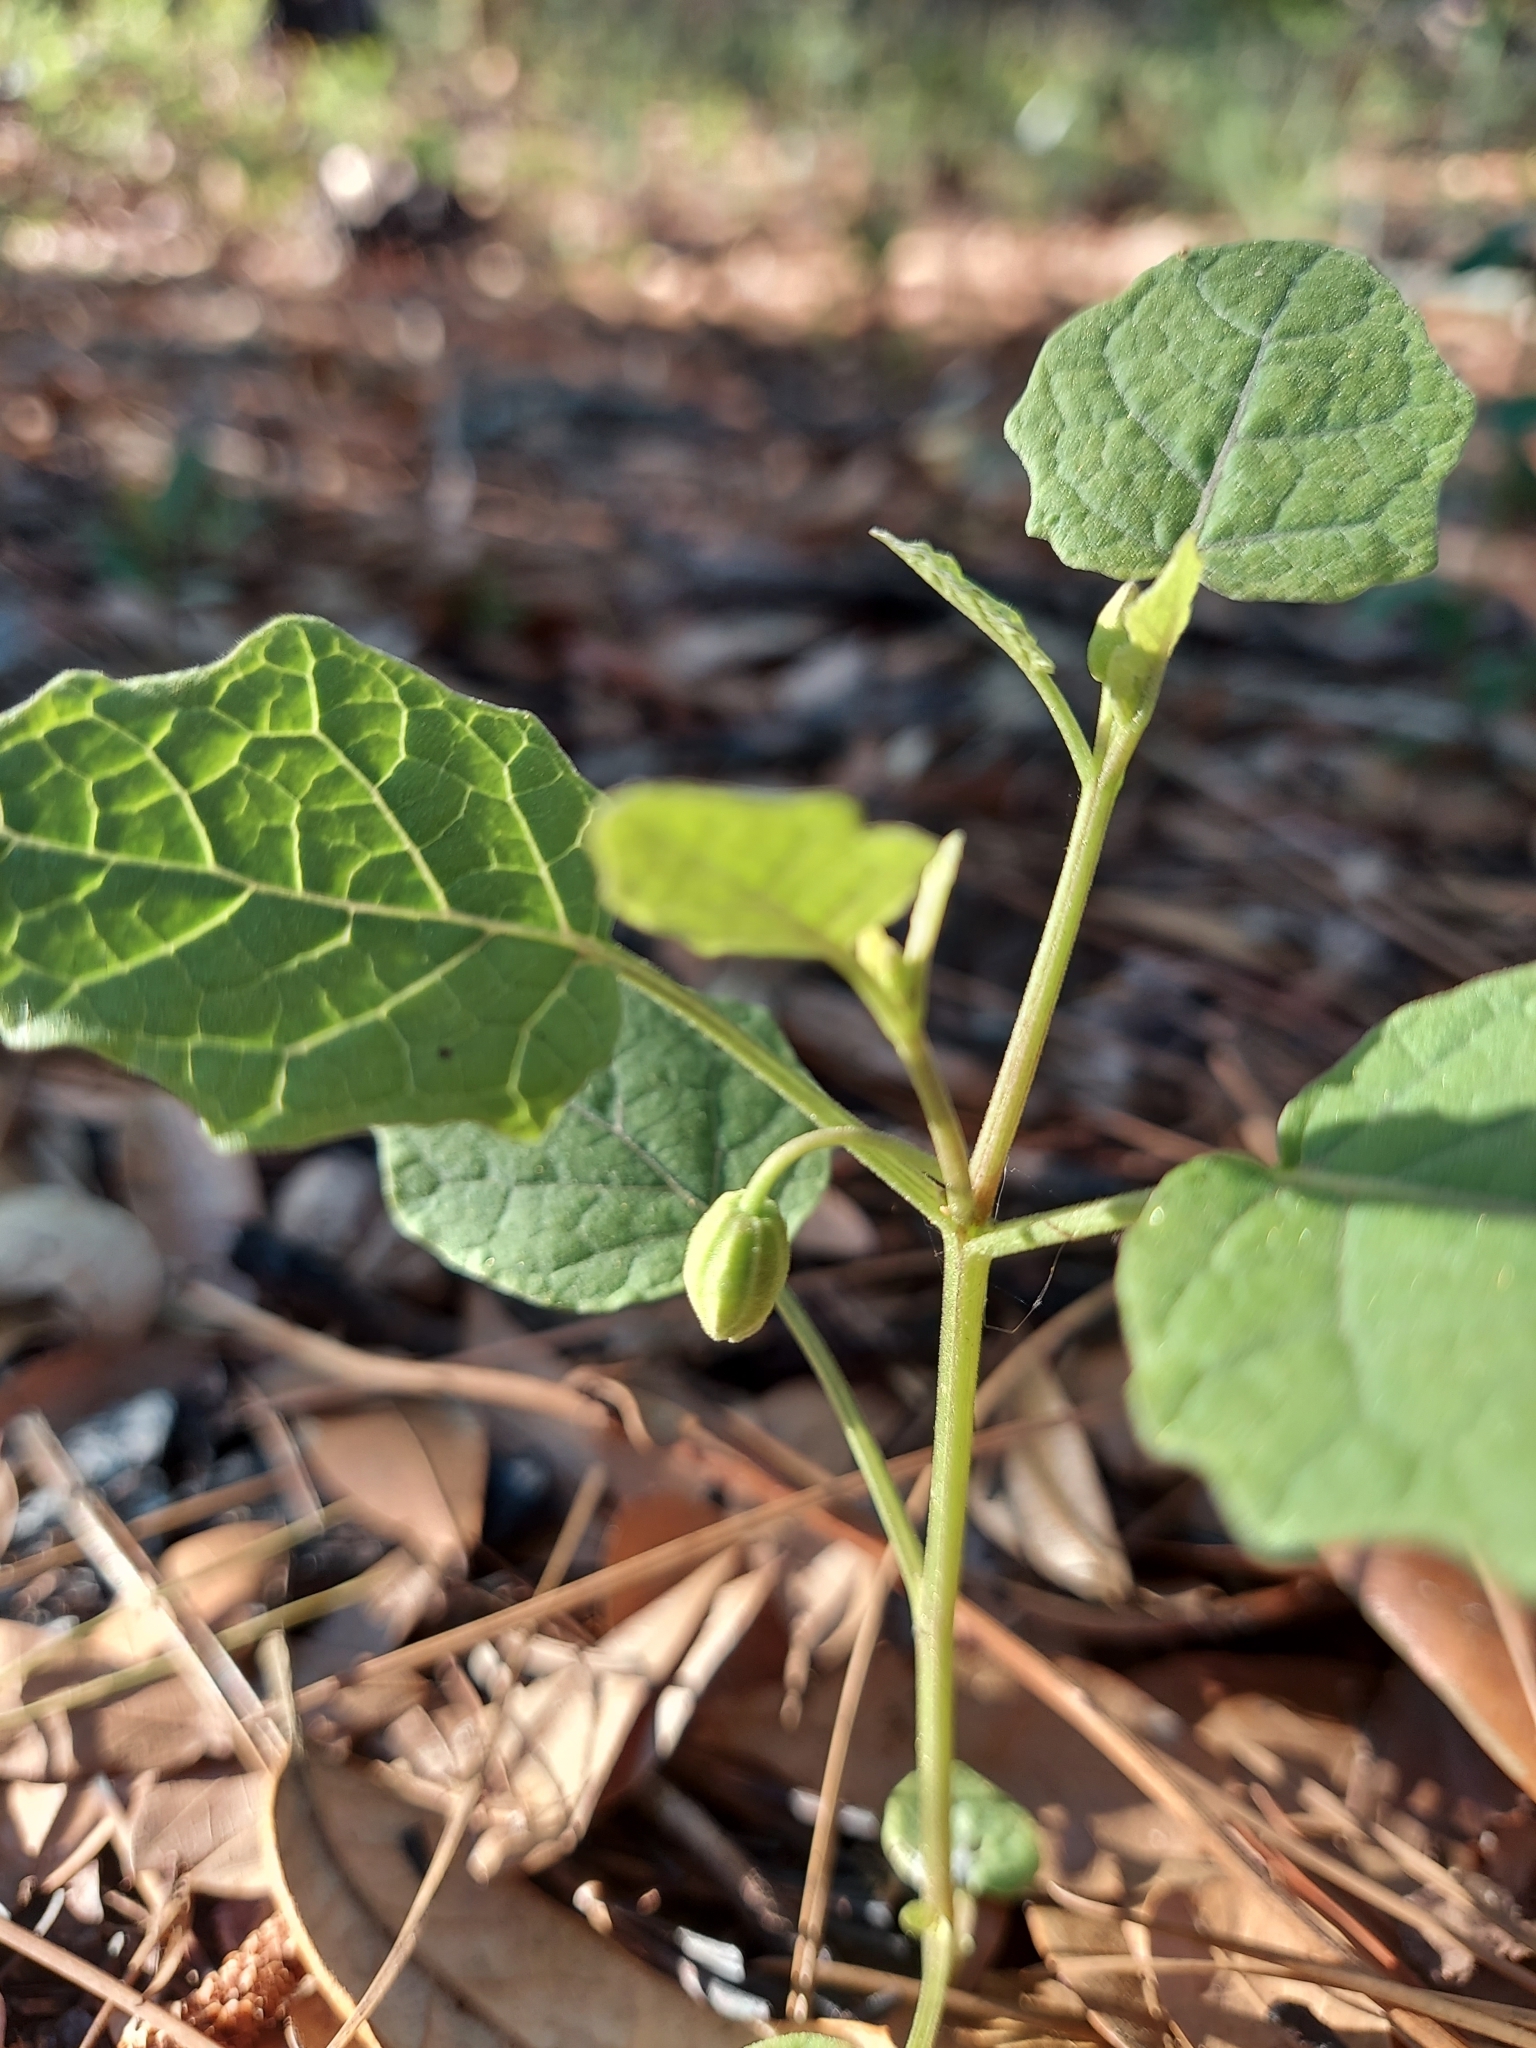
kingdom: Plantae
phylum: Tracheophyta
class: Magnoliopsida
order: Solanales
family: Solanaceae
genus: Physalis
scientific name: Physalis arenicola
